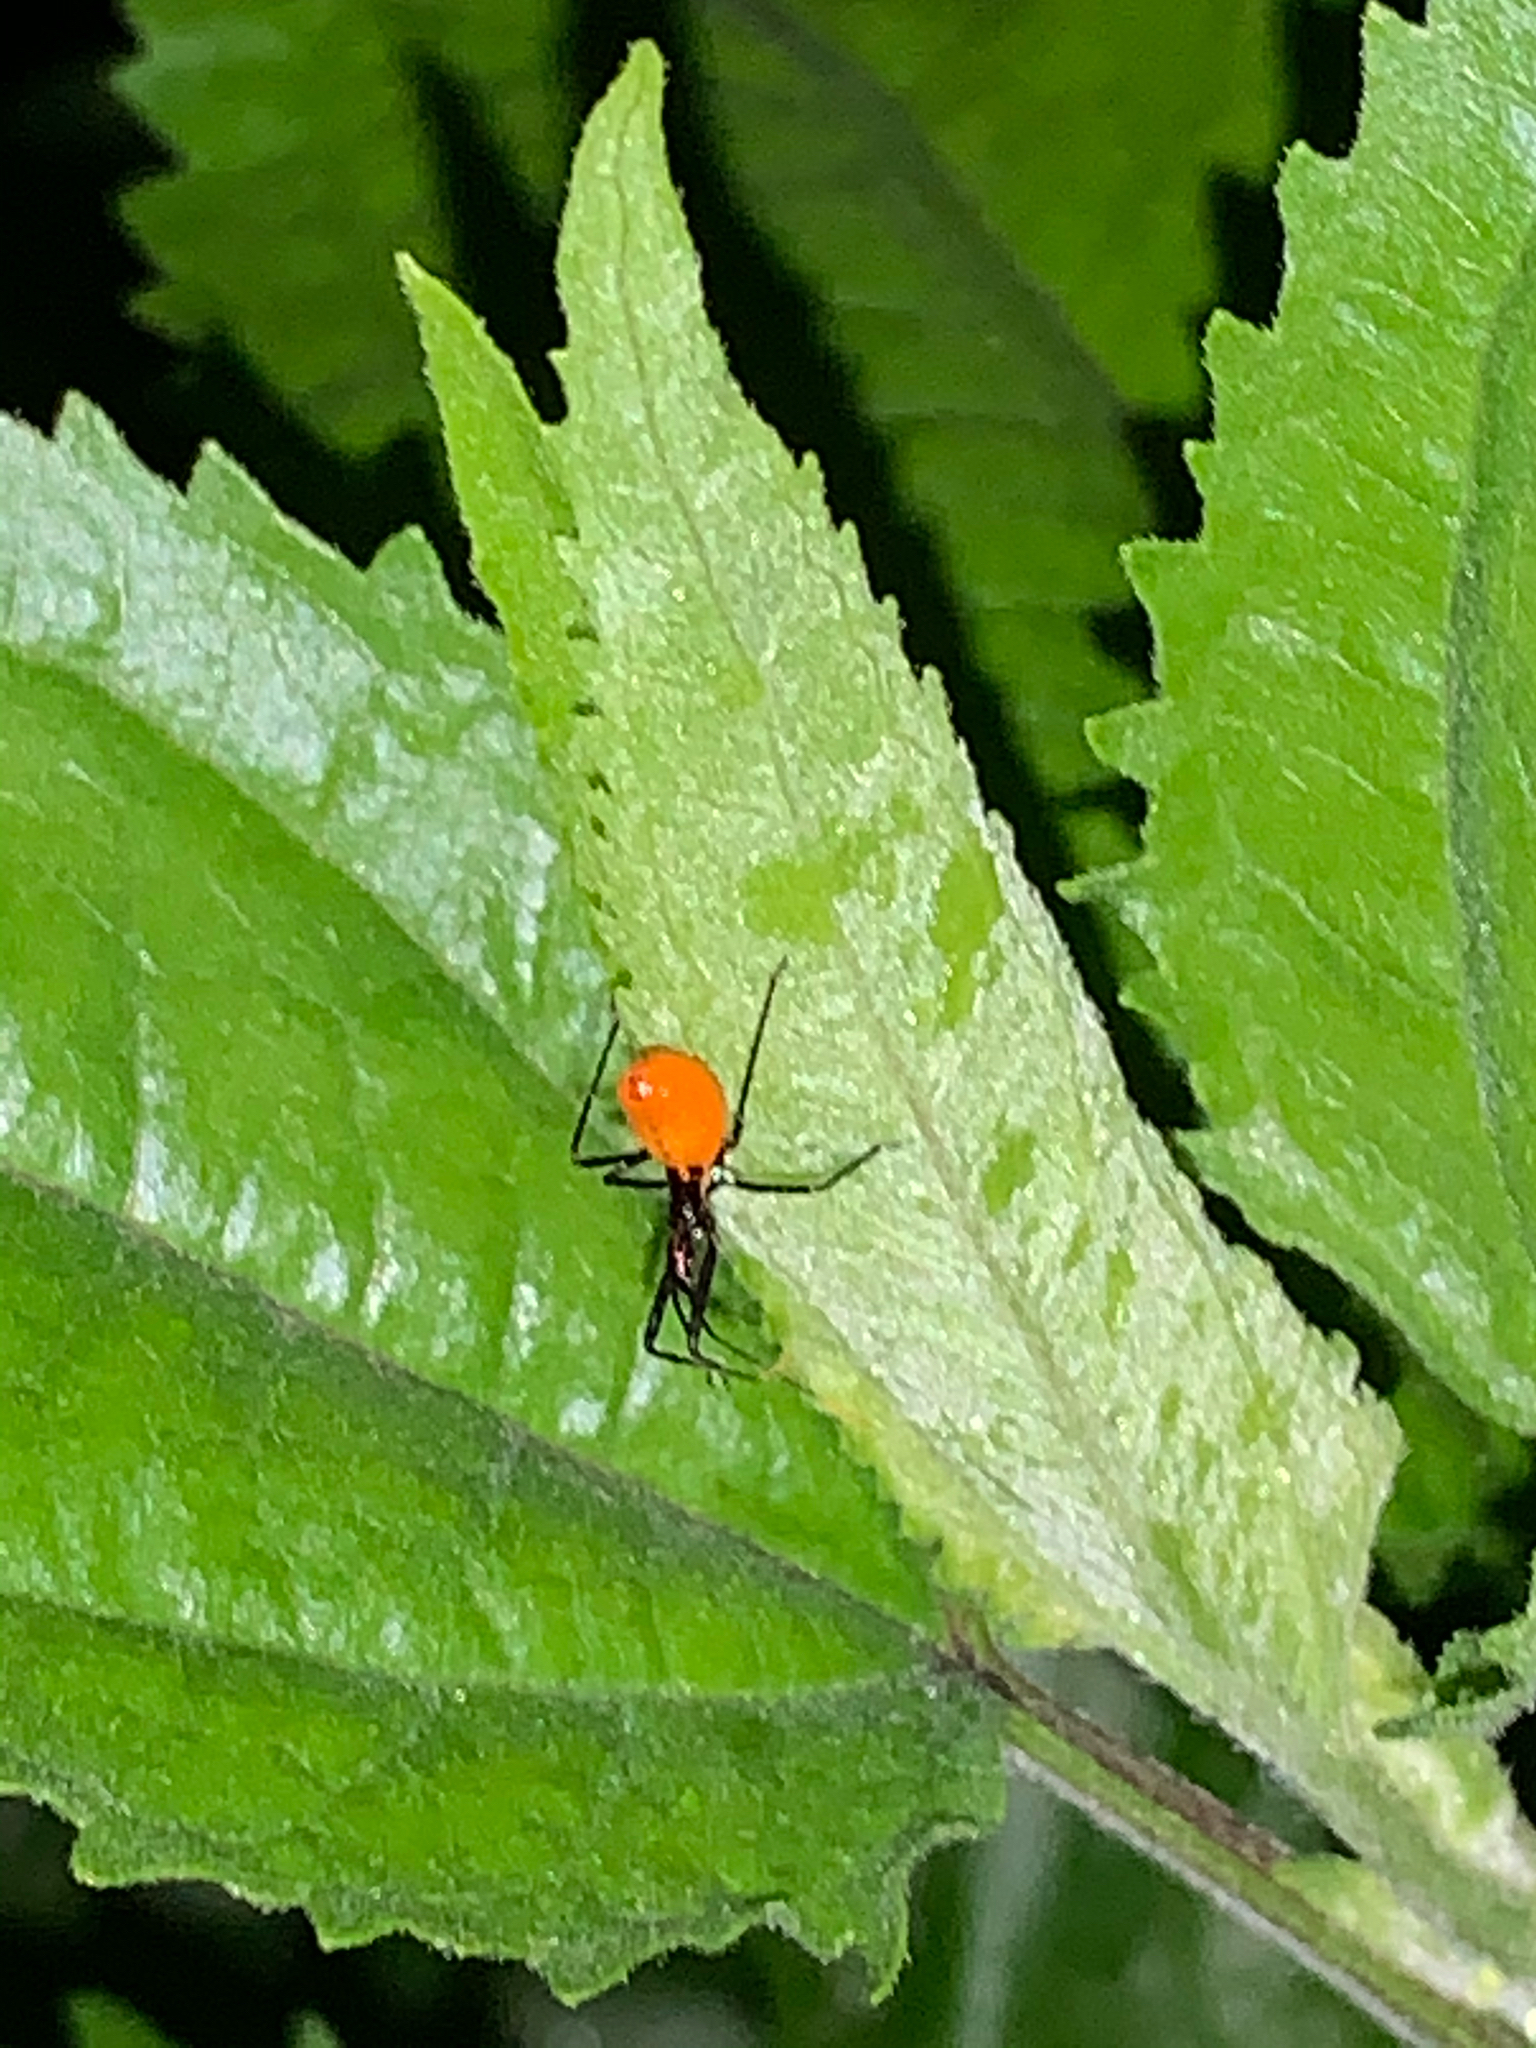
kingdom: Animalia
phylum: Arthropoda
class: Insecta
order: Hemiptera
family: Reduviidae
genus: Arilus
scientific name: Arilus cristatus
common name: North american wheel bug
